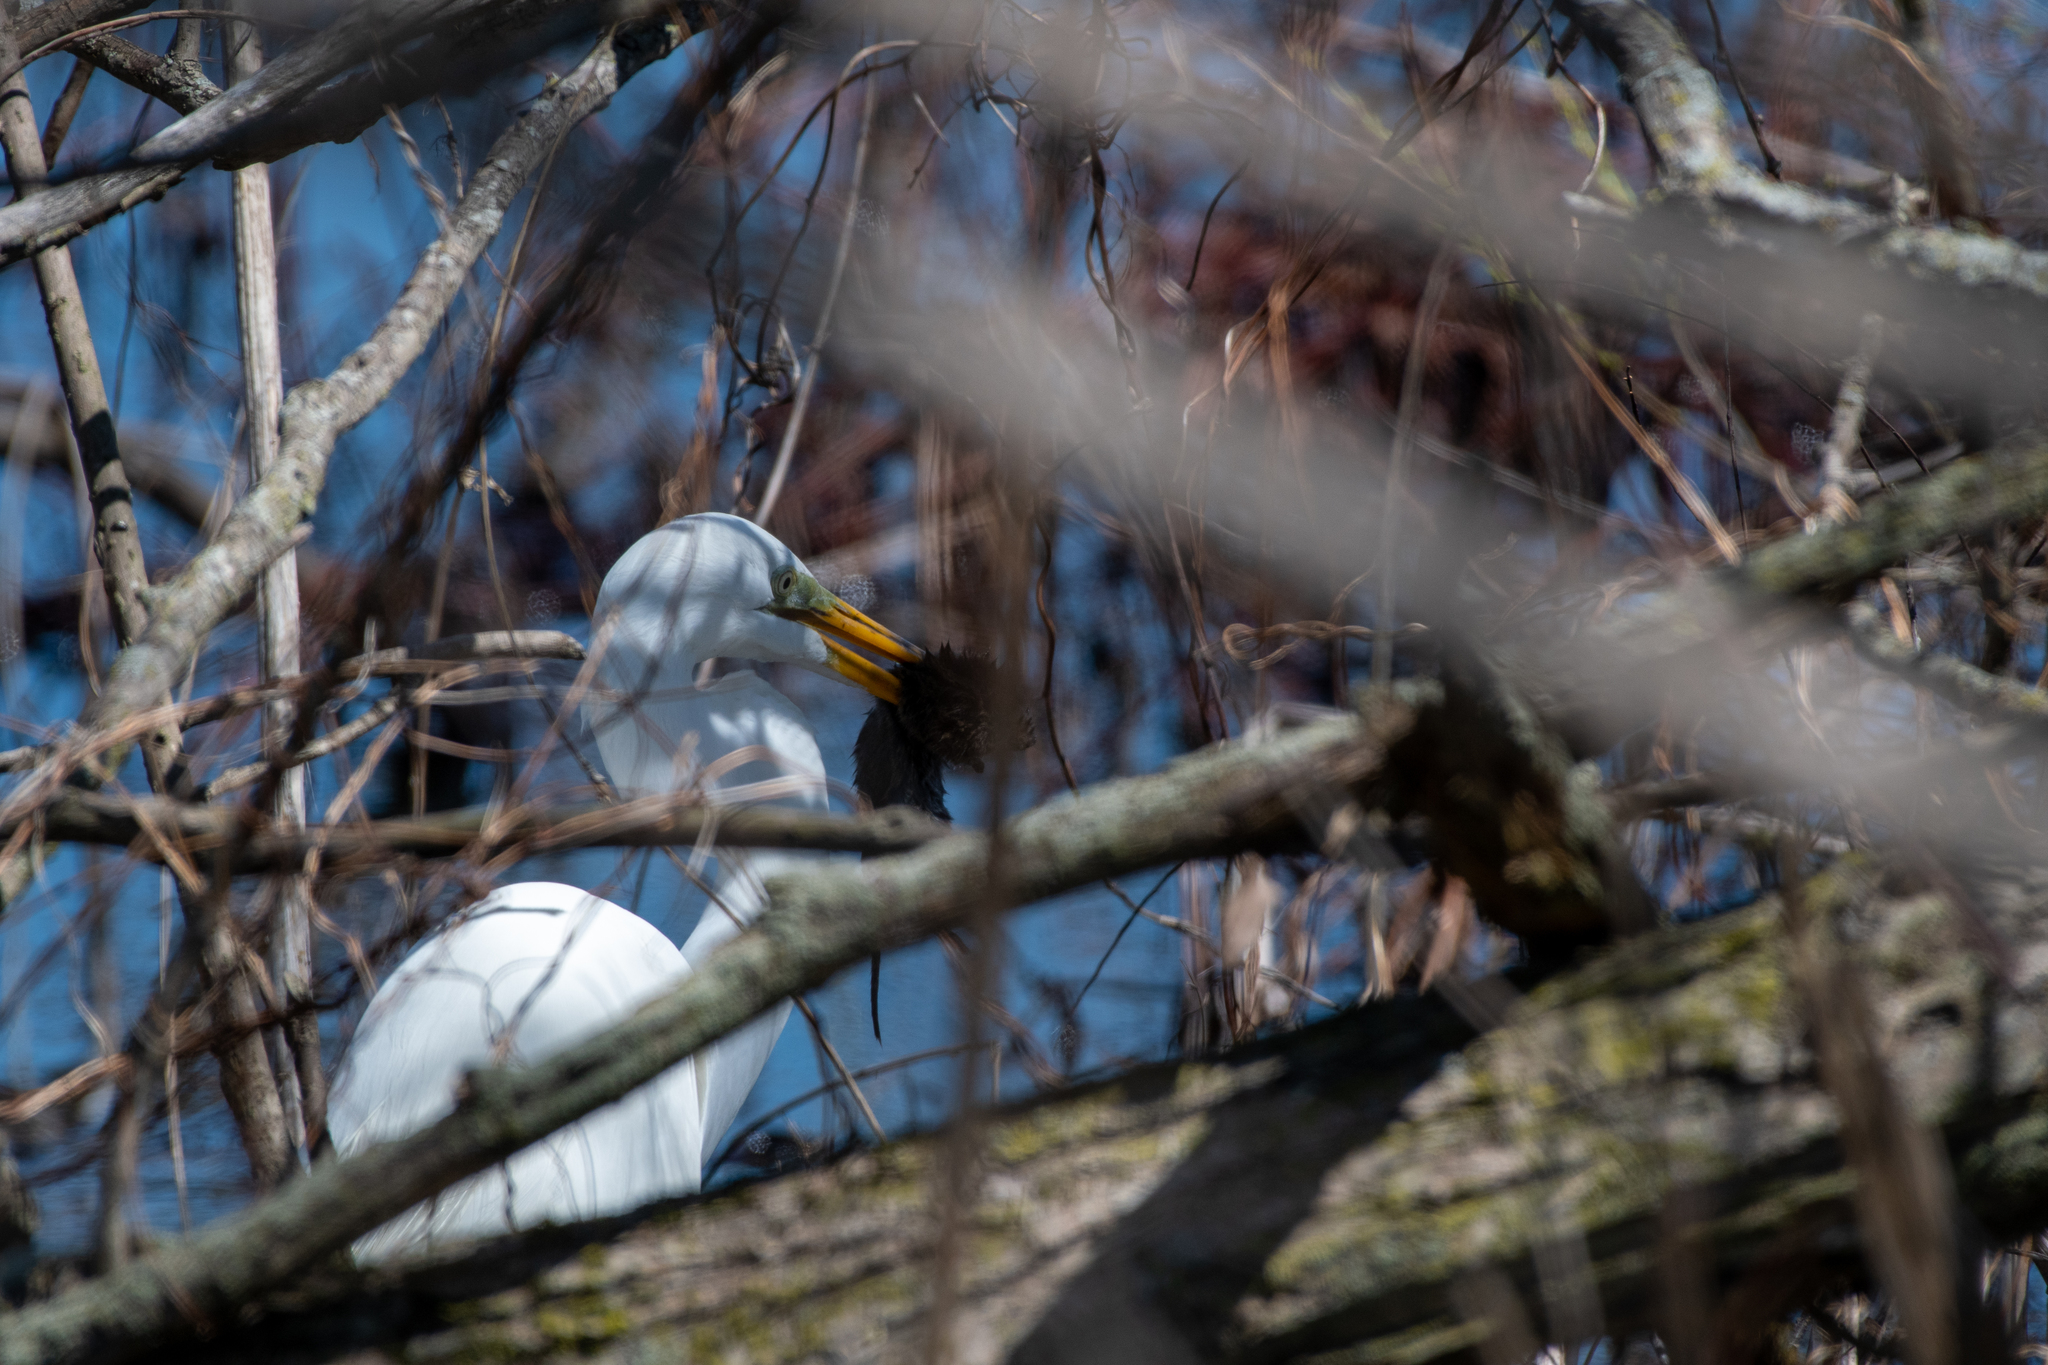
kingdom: Animalia
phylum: Chordata
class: Aves
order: Pelecaniformes
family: Ardeidae
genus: Ardea
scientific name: Ardea alba
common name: Great egret
